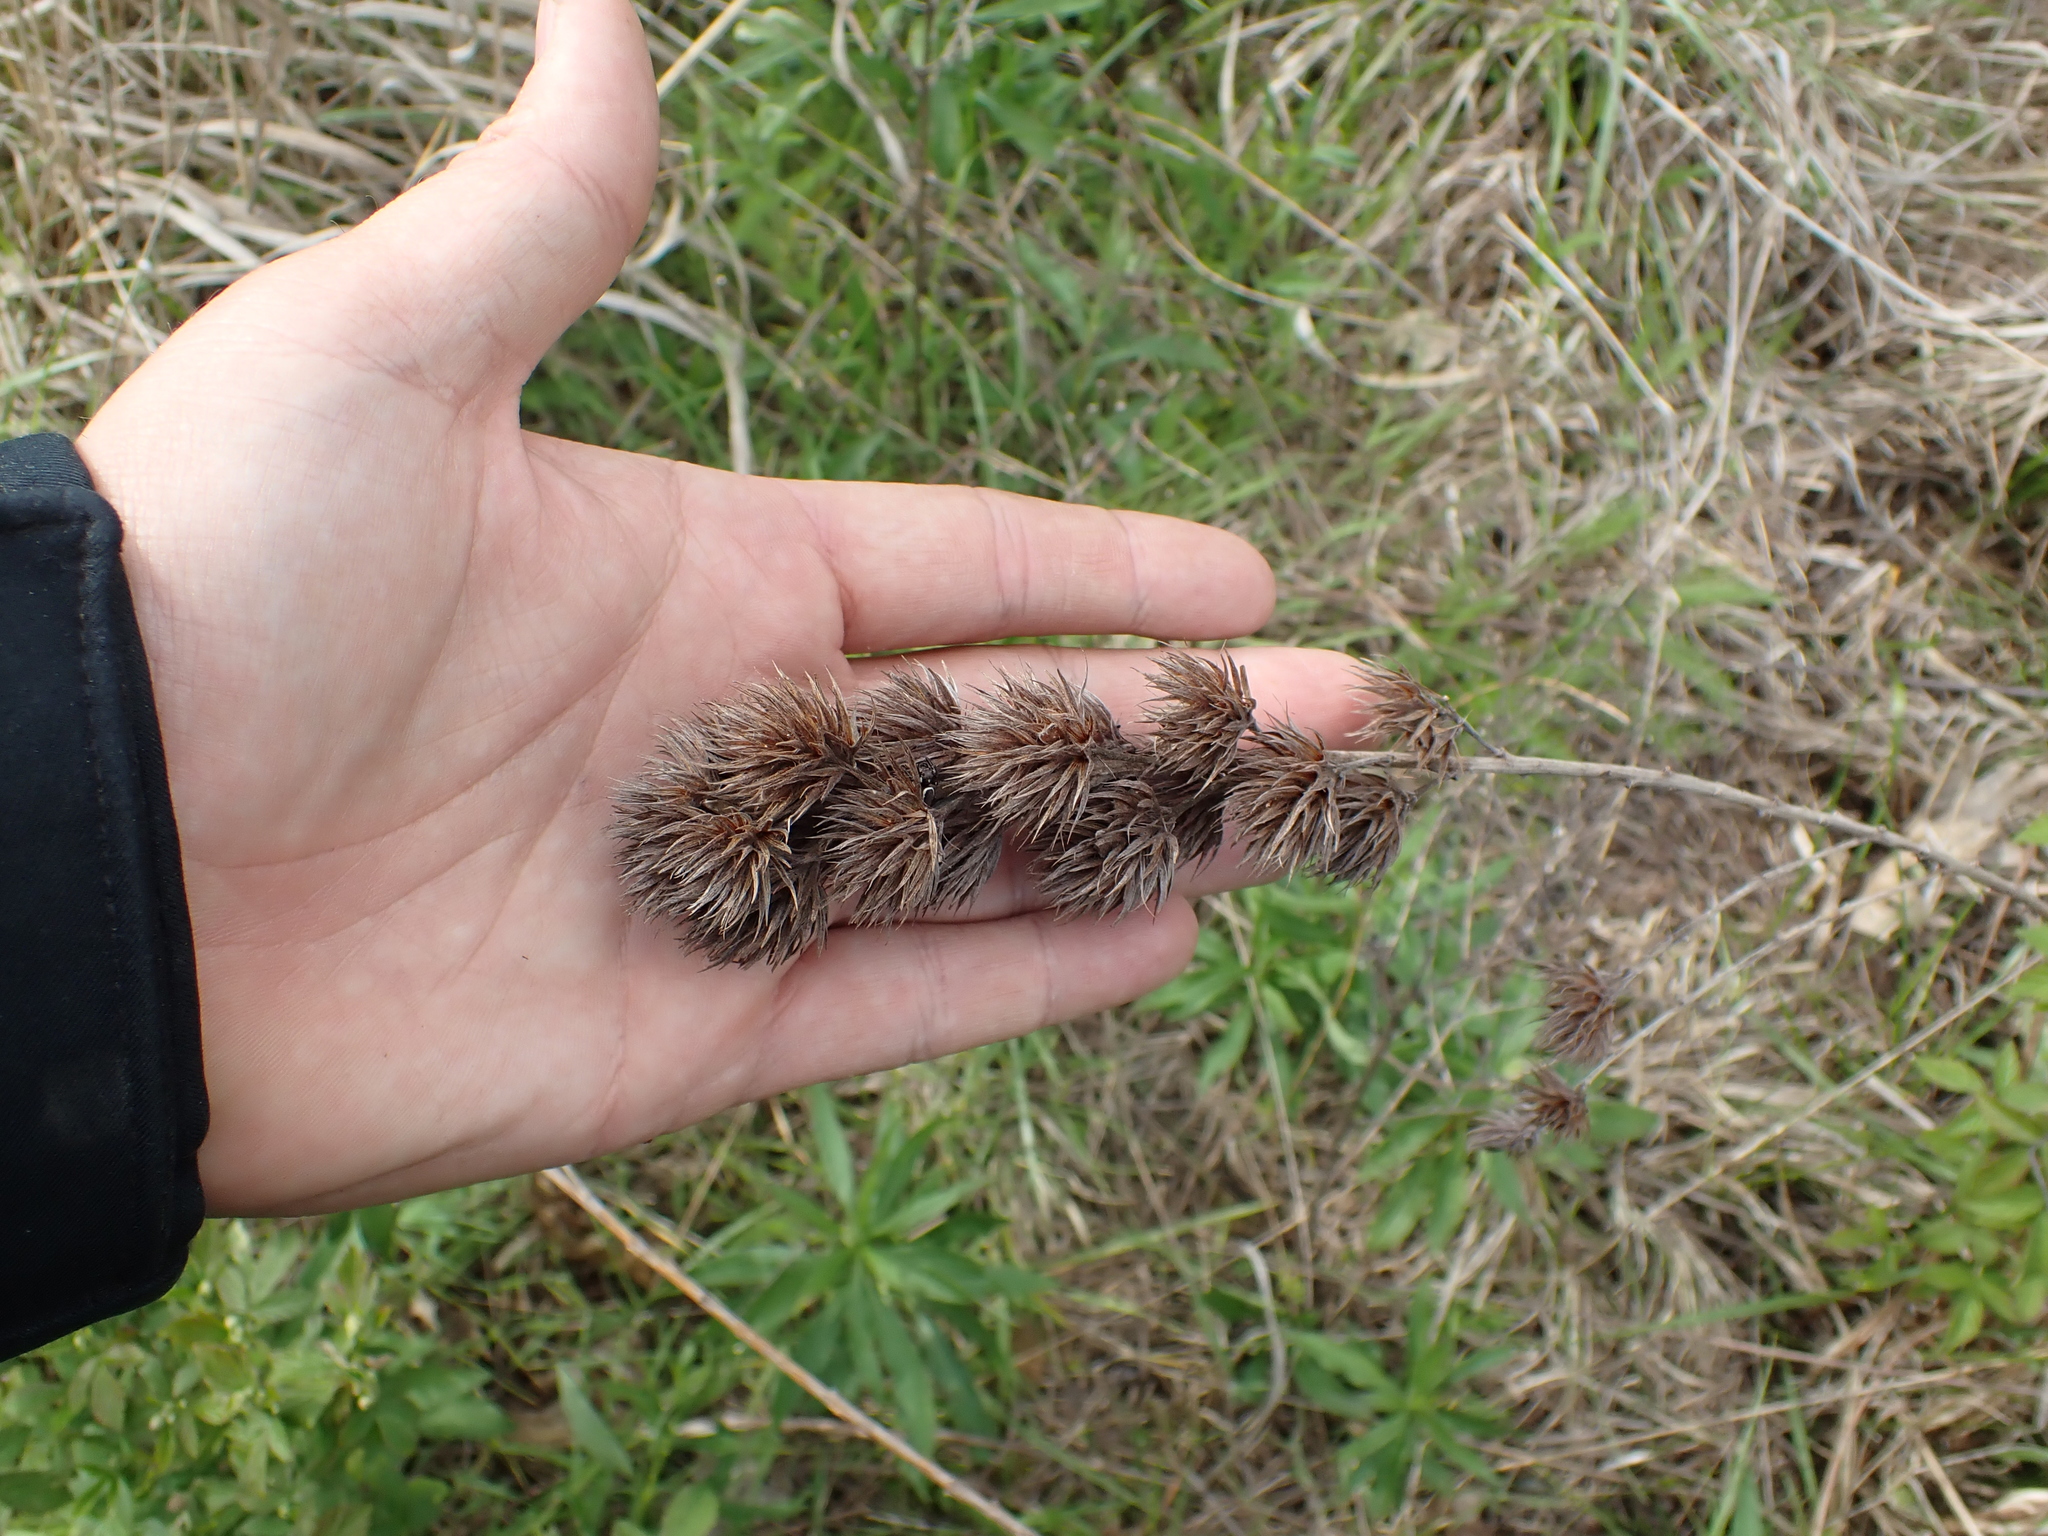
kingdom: Plantae
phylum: Tracheophyta
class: Magnoliopsida
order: Fabales
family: Fabaceae
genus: Lespedeza
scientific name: Lespedeza capitata
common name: Dusty clover
